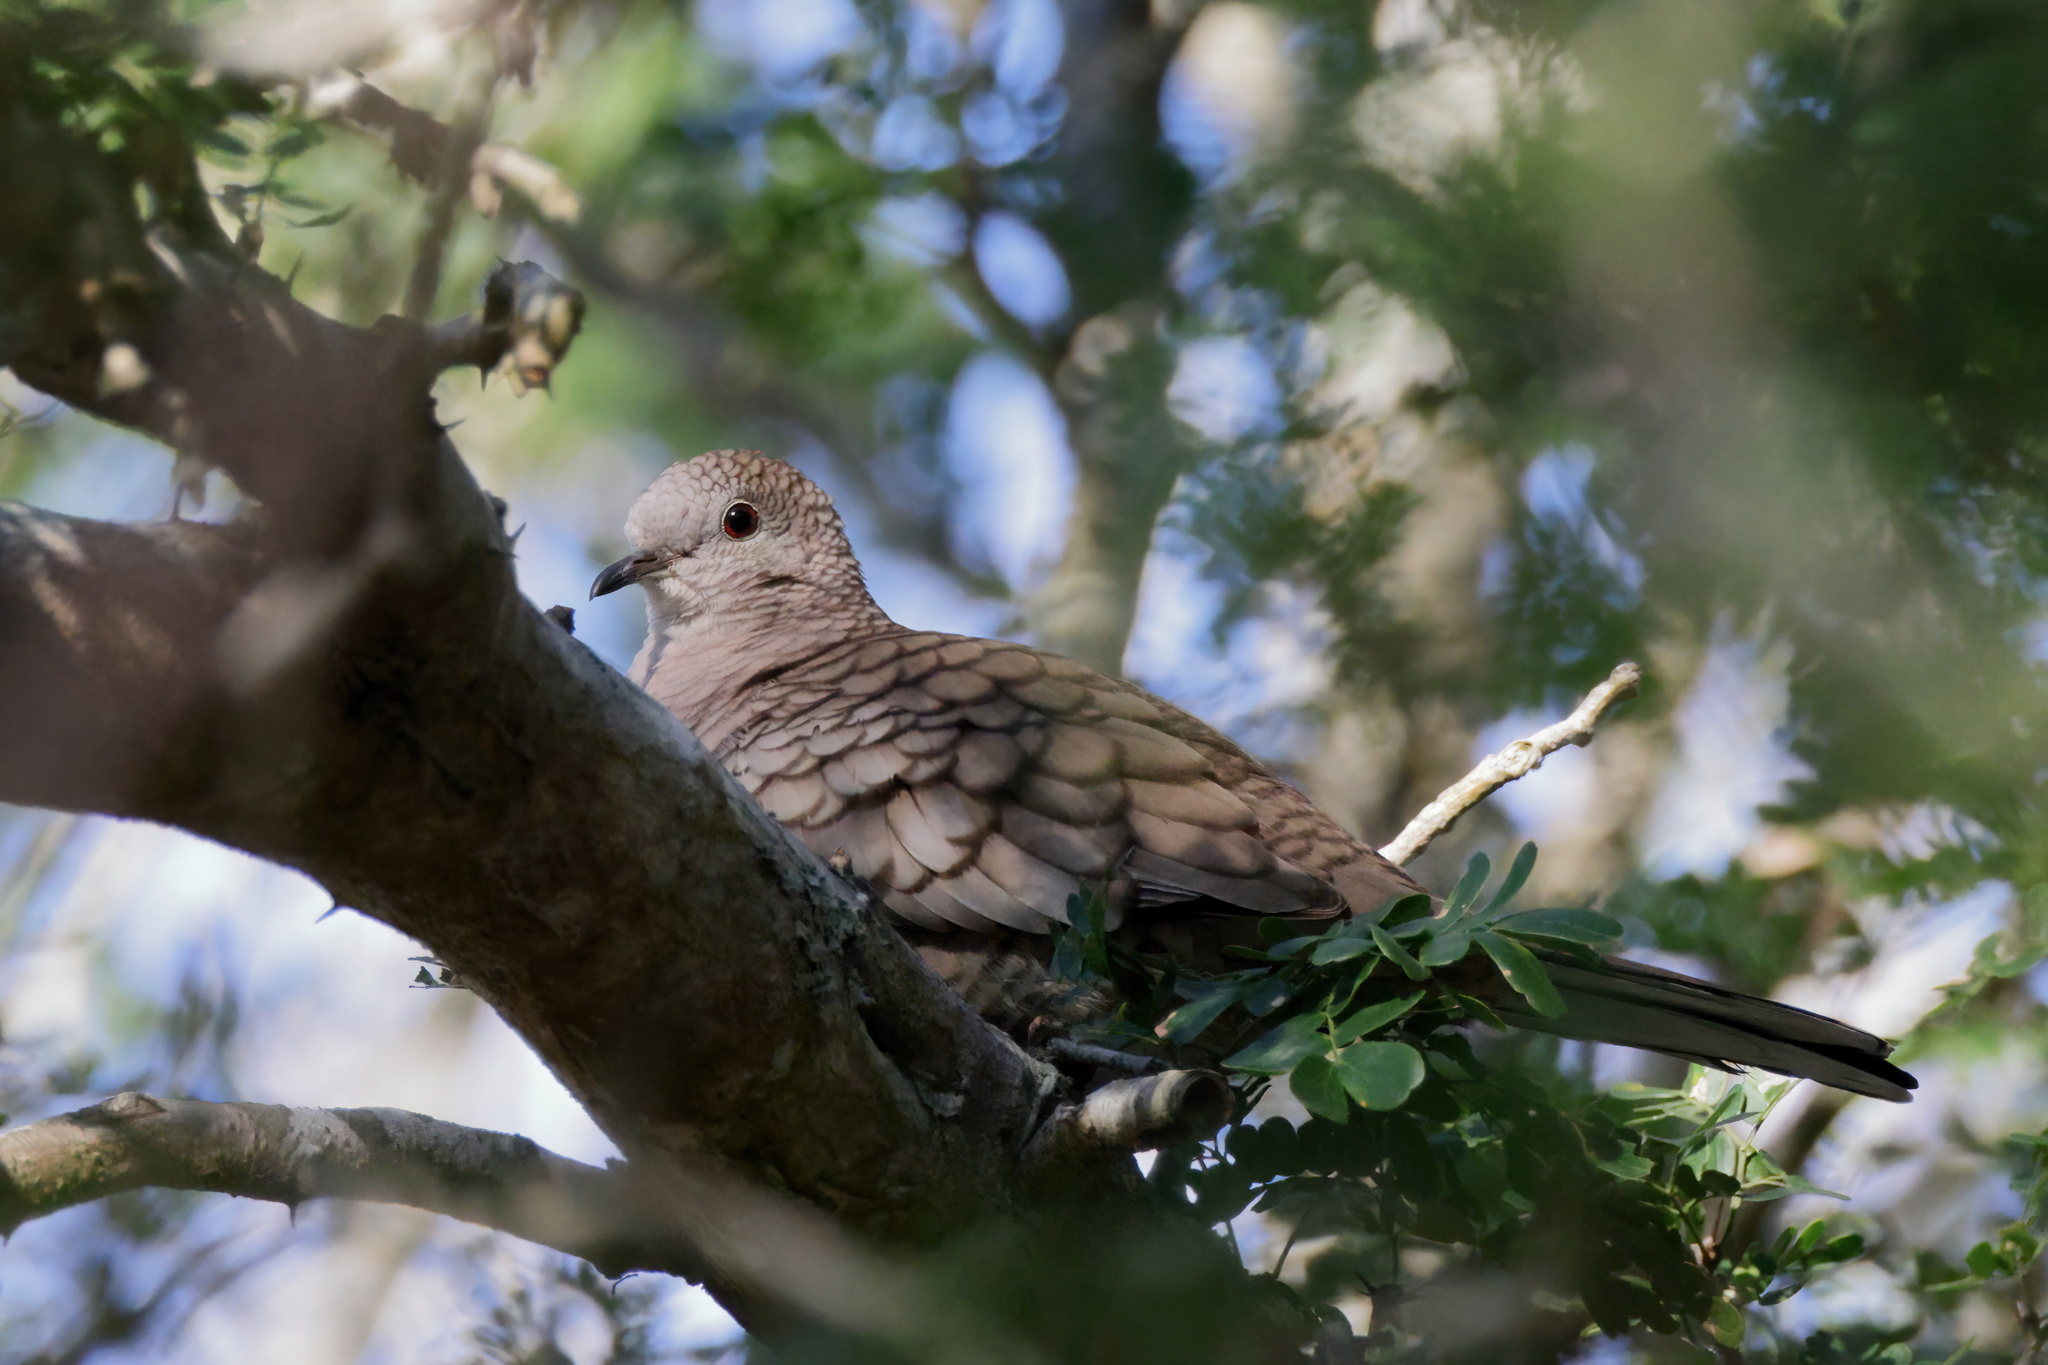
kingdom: Animalia
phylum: Chordata
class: Aves
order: Columbiformes
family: Columbidae
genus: Columbina
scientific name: Columbina inca
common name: Inca dove
